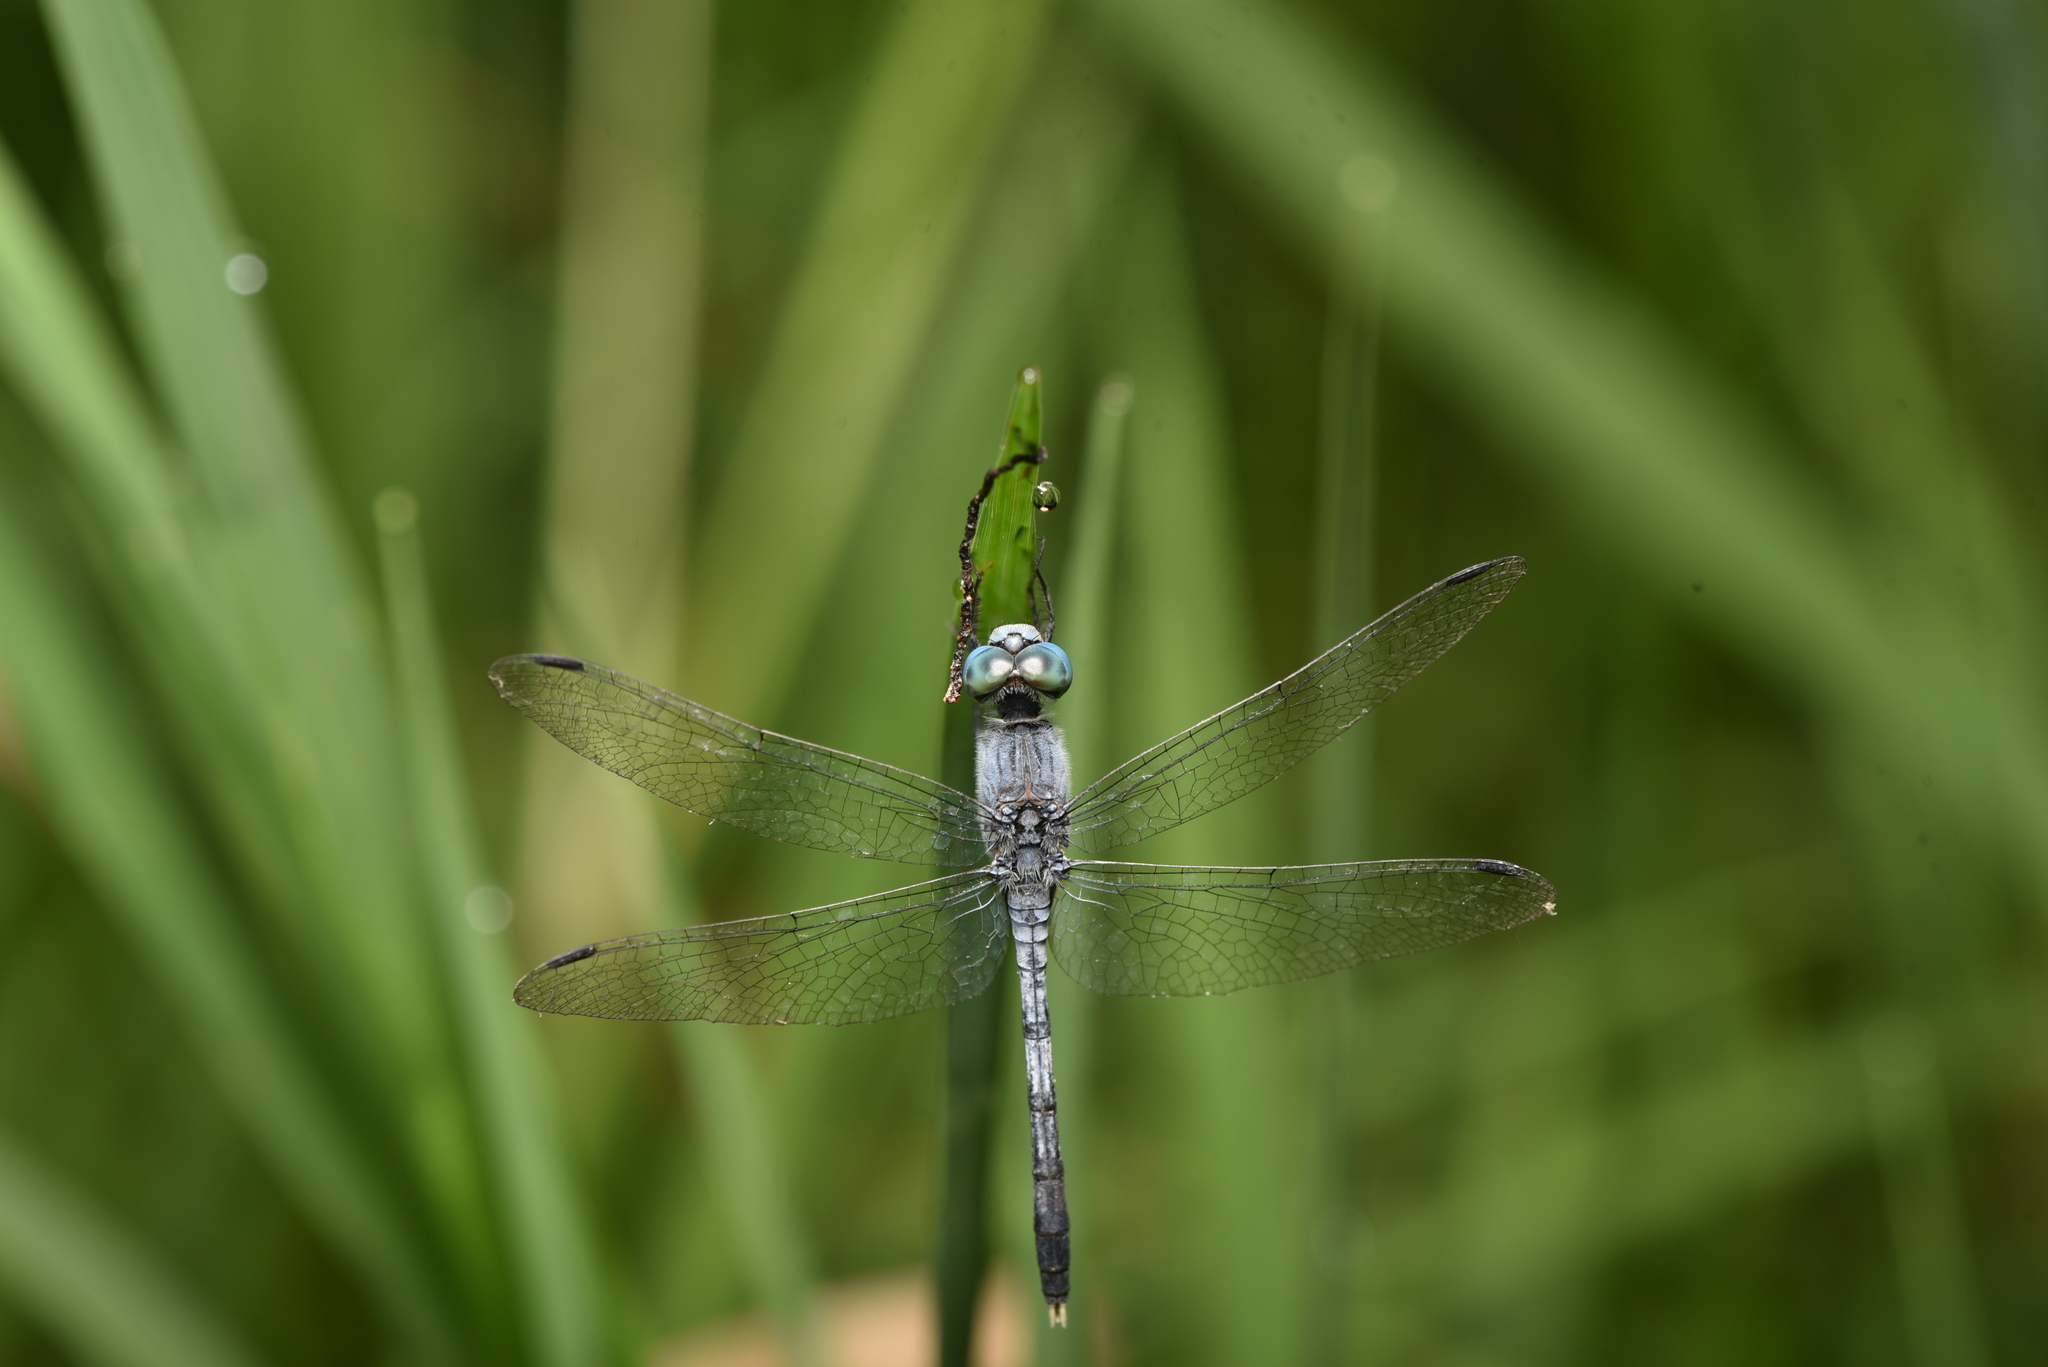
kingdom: Animalia
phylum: Arthropoda
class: Insecta
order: Odonata
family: Libellulidae
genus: Diplacodes
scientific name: Diplacodes trivialis
